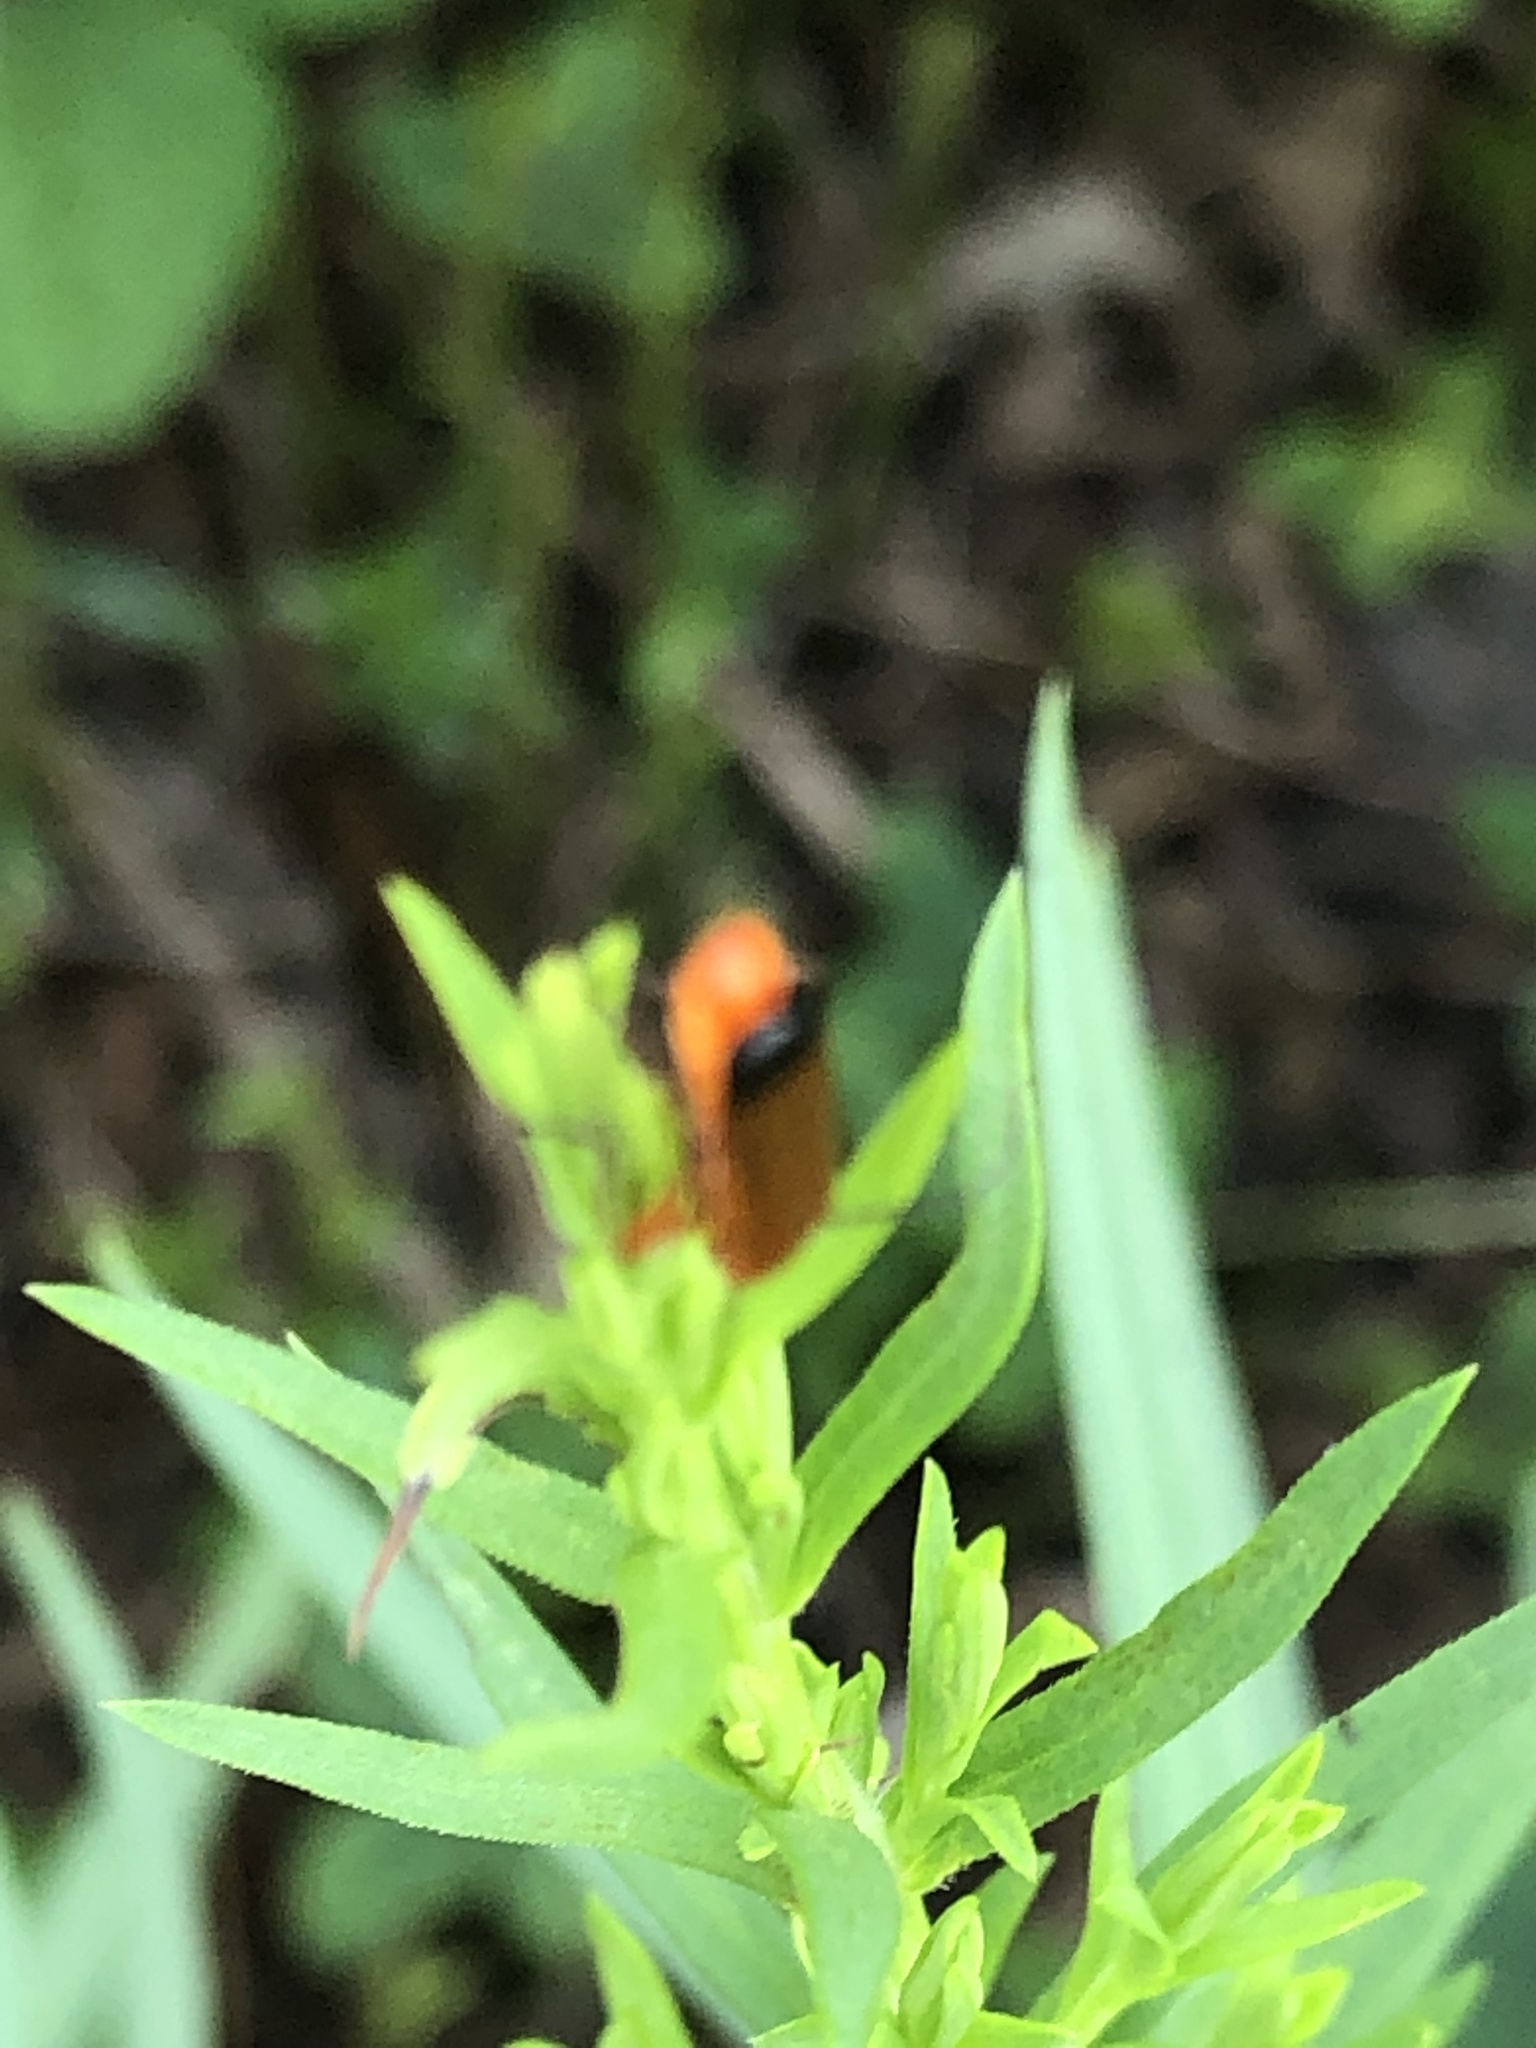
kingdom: Animalia
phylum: Arthropoda
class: Insecta
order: Coleoptera
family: Cantharidae
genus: Rhagonycha
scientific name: Rhagonycha fulva
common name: Common red soldier beetle
